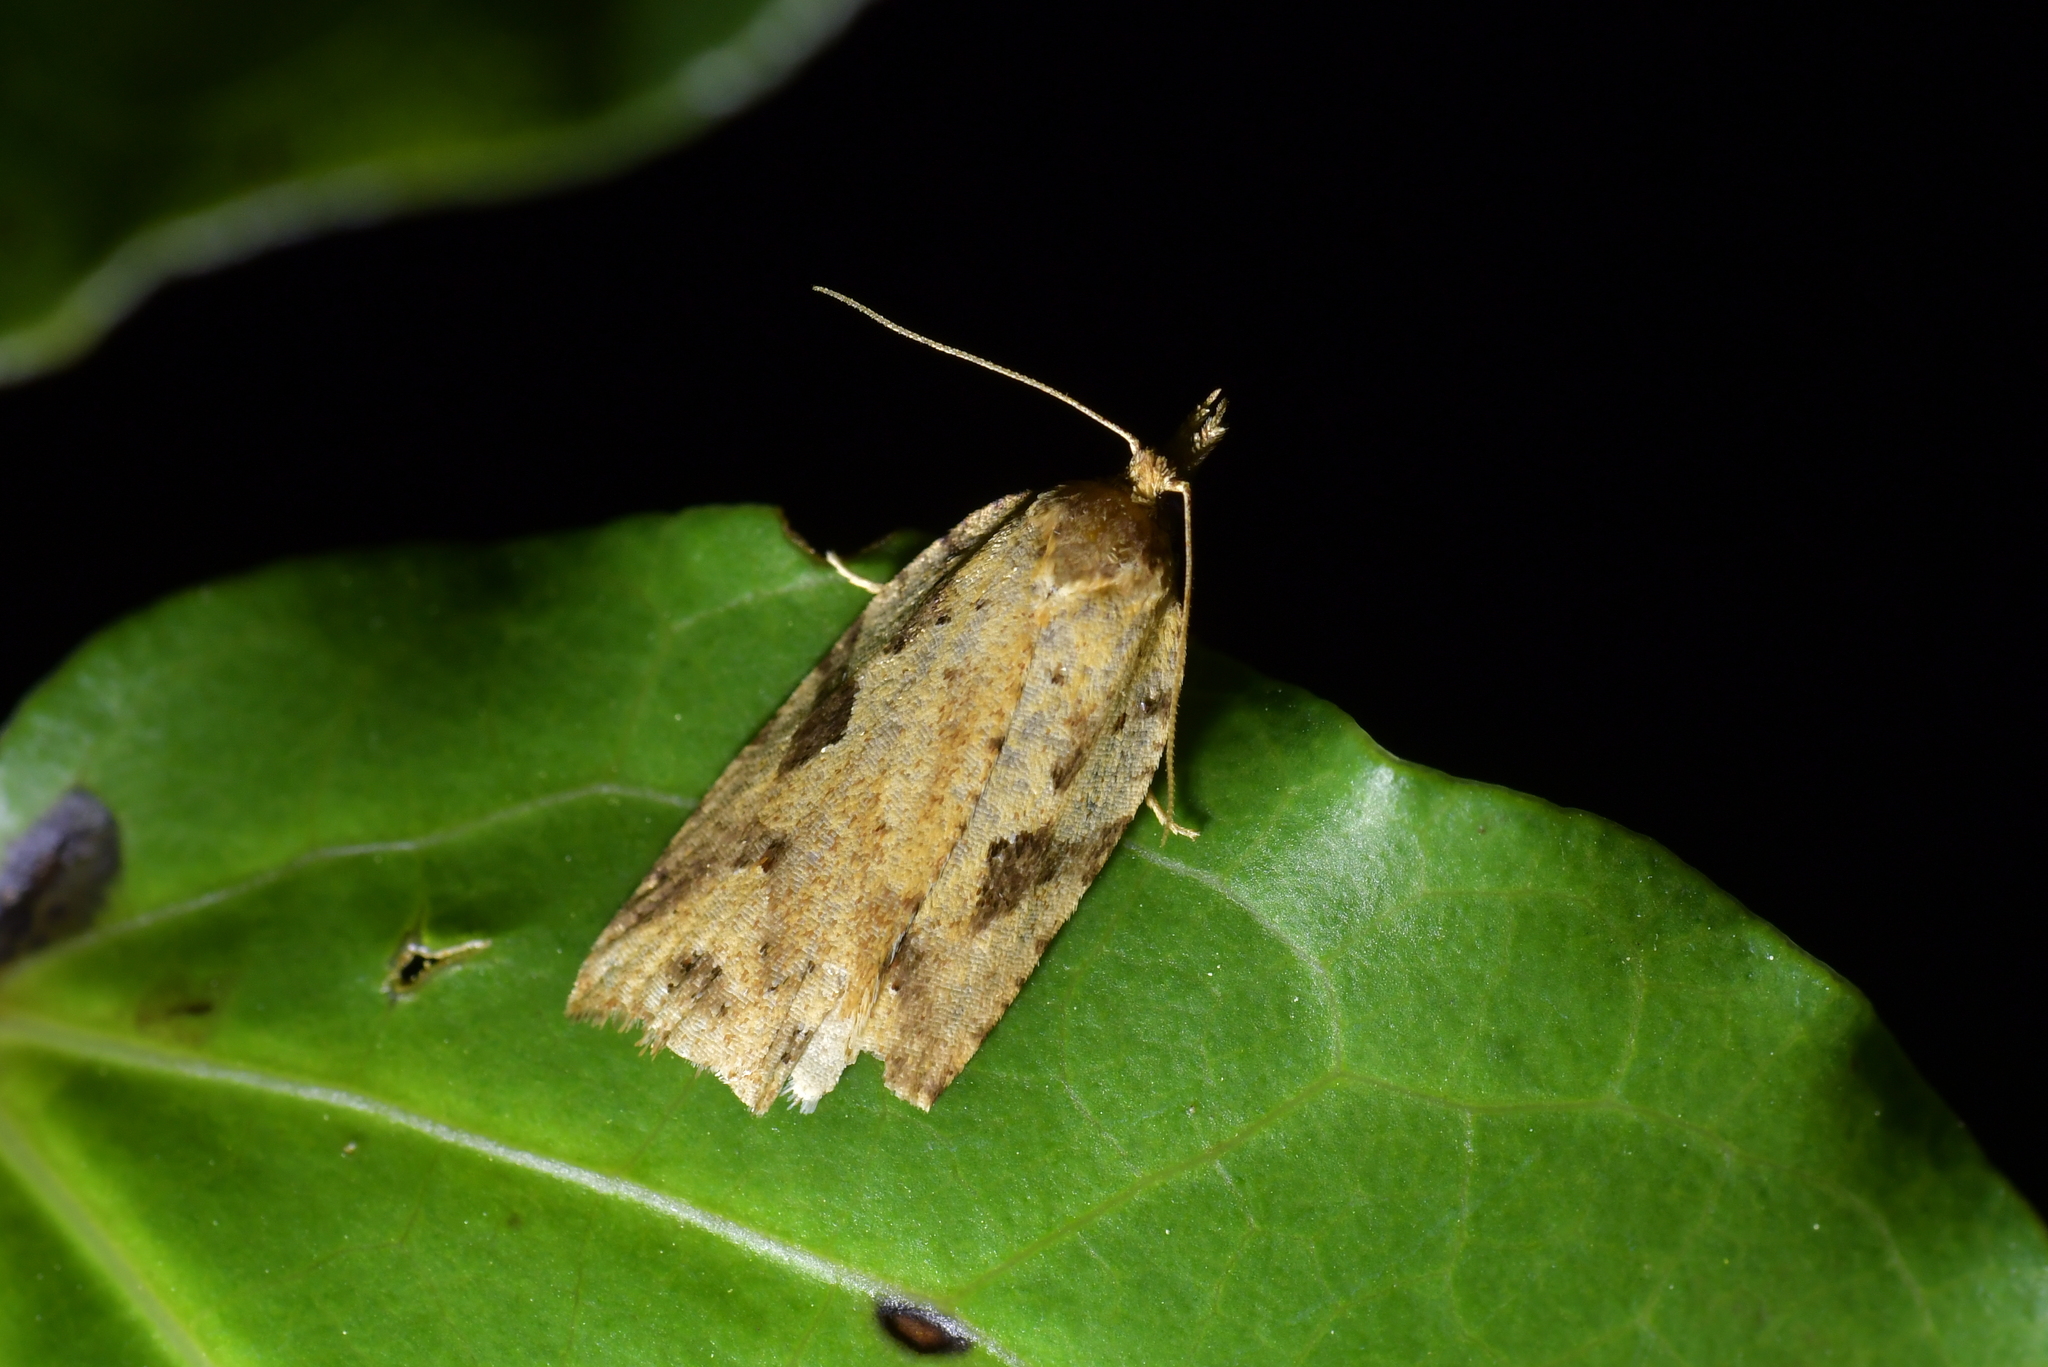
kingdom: Animalia
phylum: Arthropoda
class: Insecta
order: Lepidoptera
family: Tortricidae
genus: Ctenopseustis
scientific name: Ctenopseustis obliquana
